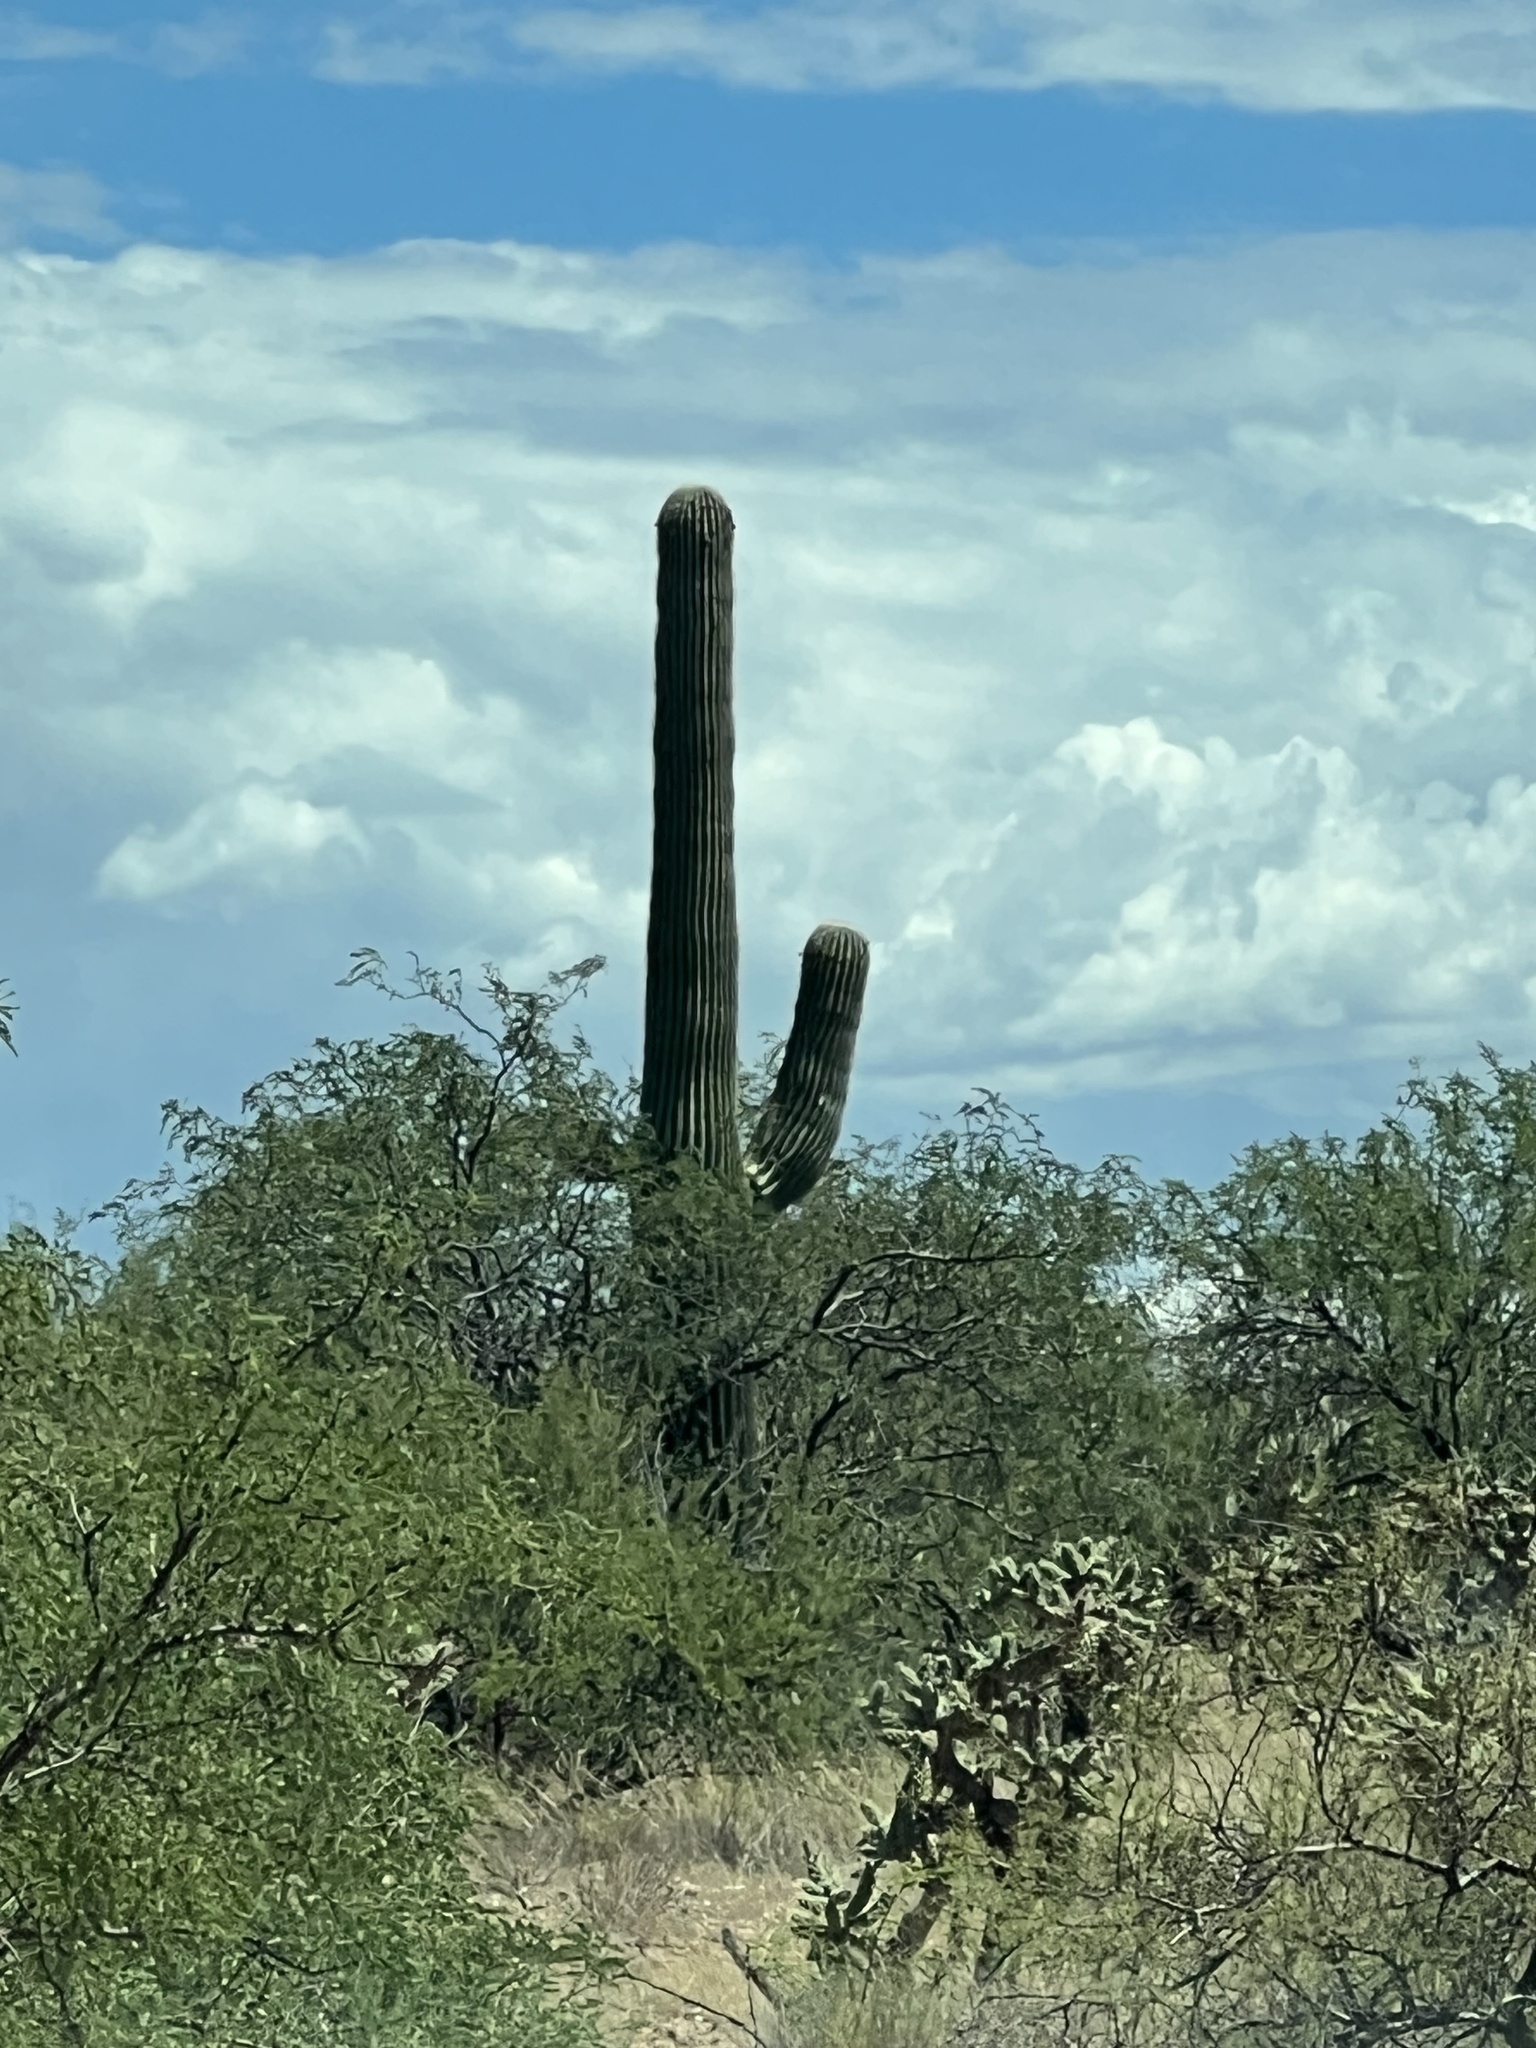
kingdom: Plantae
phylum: Tracheophyta
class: Magnoliopsida
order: Caryophyllales
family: Cactaceae
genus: Carnegiea
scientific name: Carnegiea gigantea
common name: Saguaro
